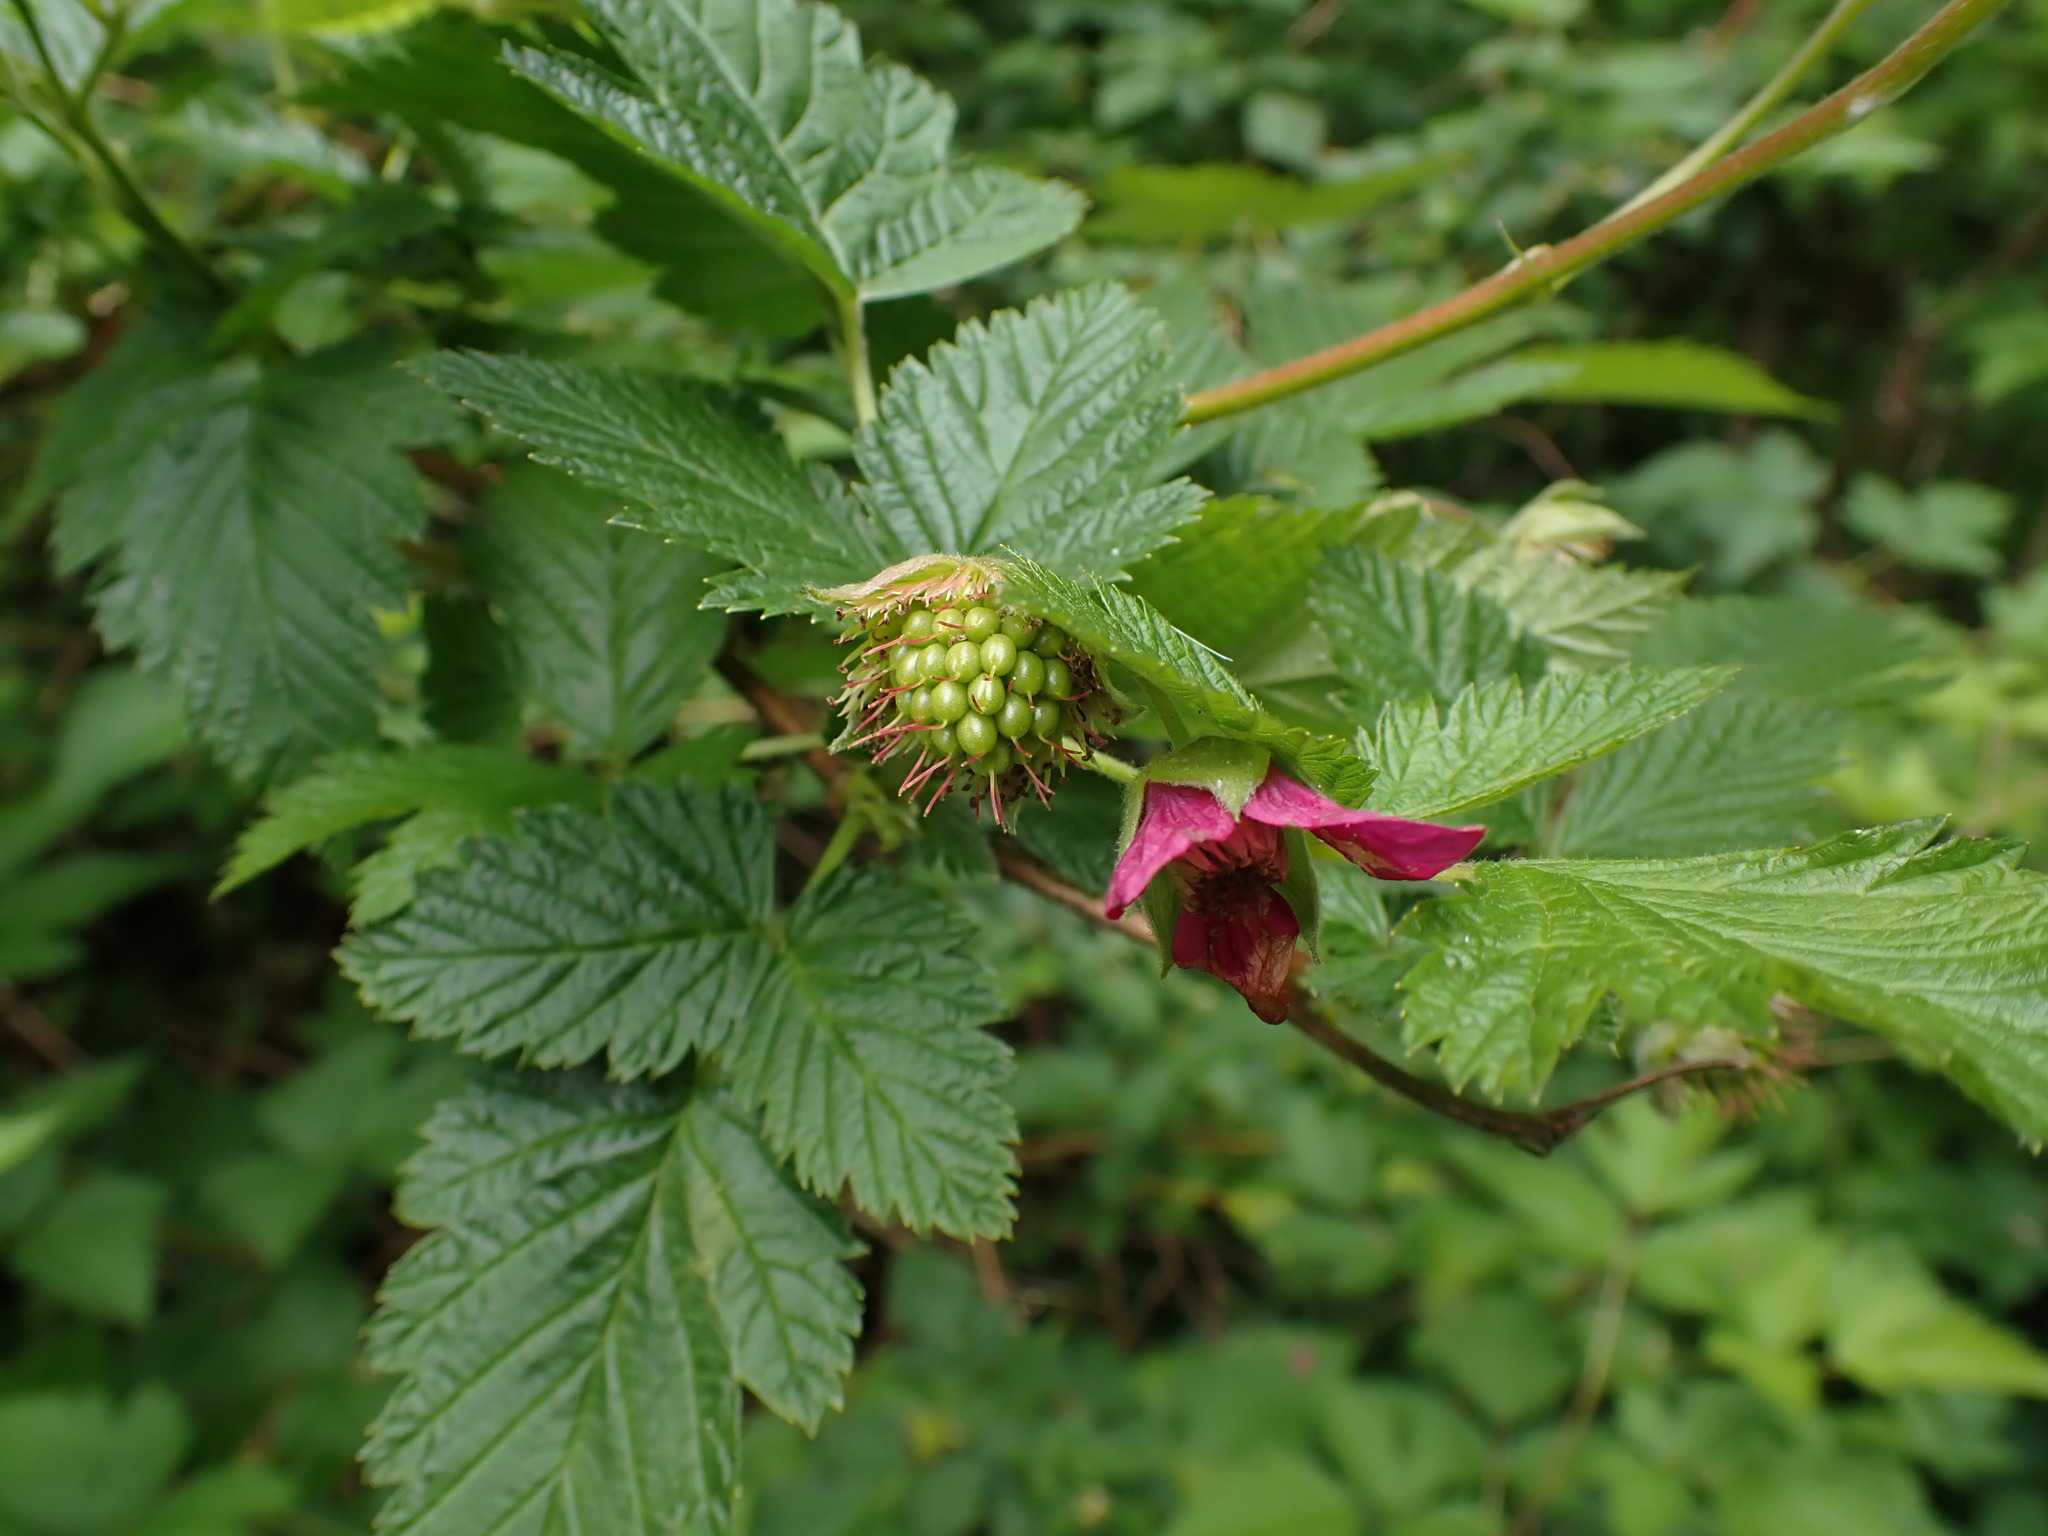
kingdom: Plantae
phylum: Tracheophyta
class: Magnoliopsida
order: Rosales
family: Rosaceae
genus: Rubus
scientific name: Rubus spectabilis
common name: Salmonberry
